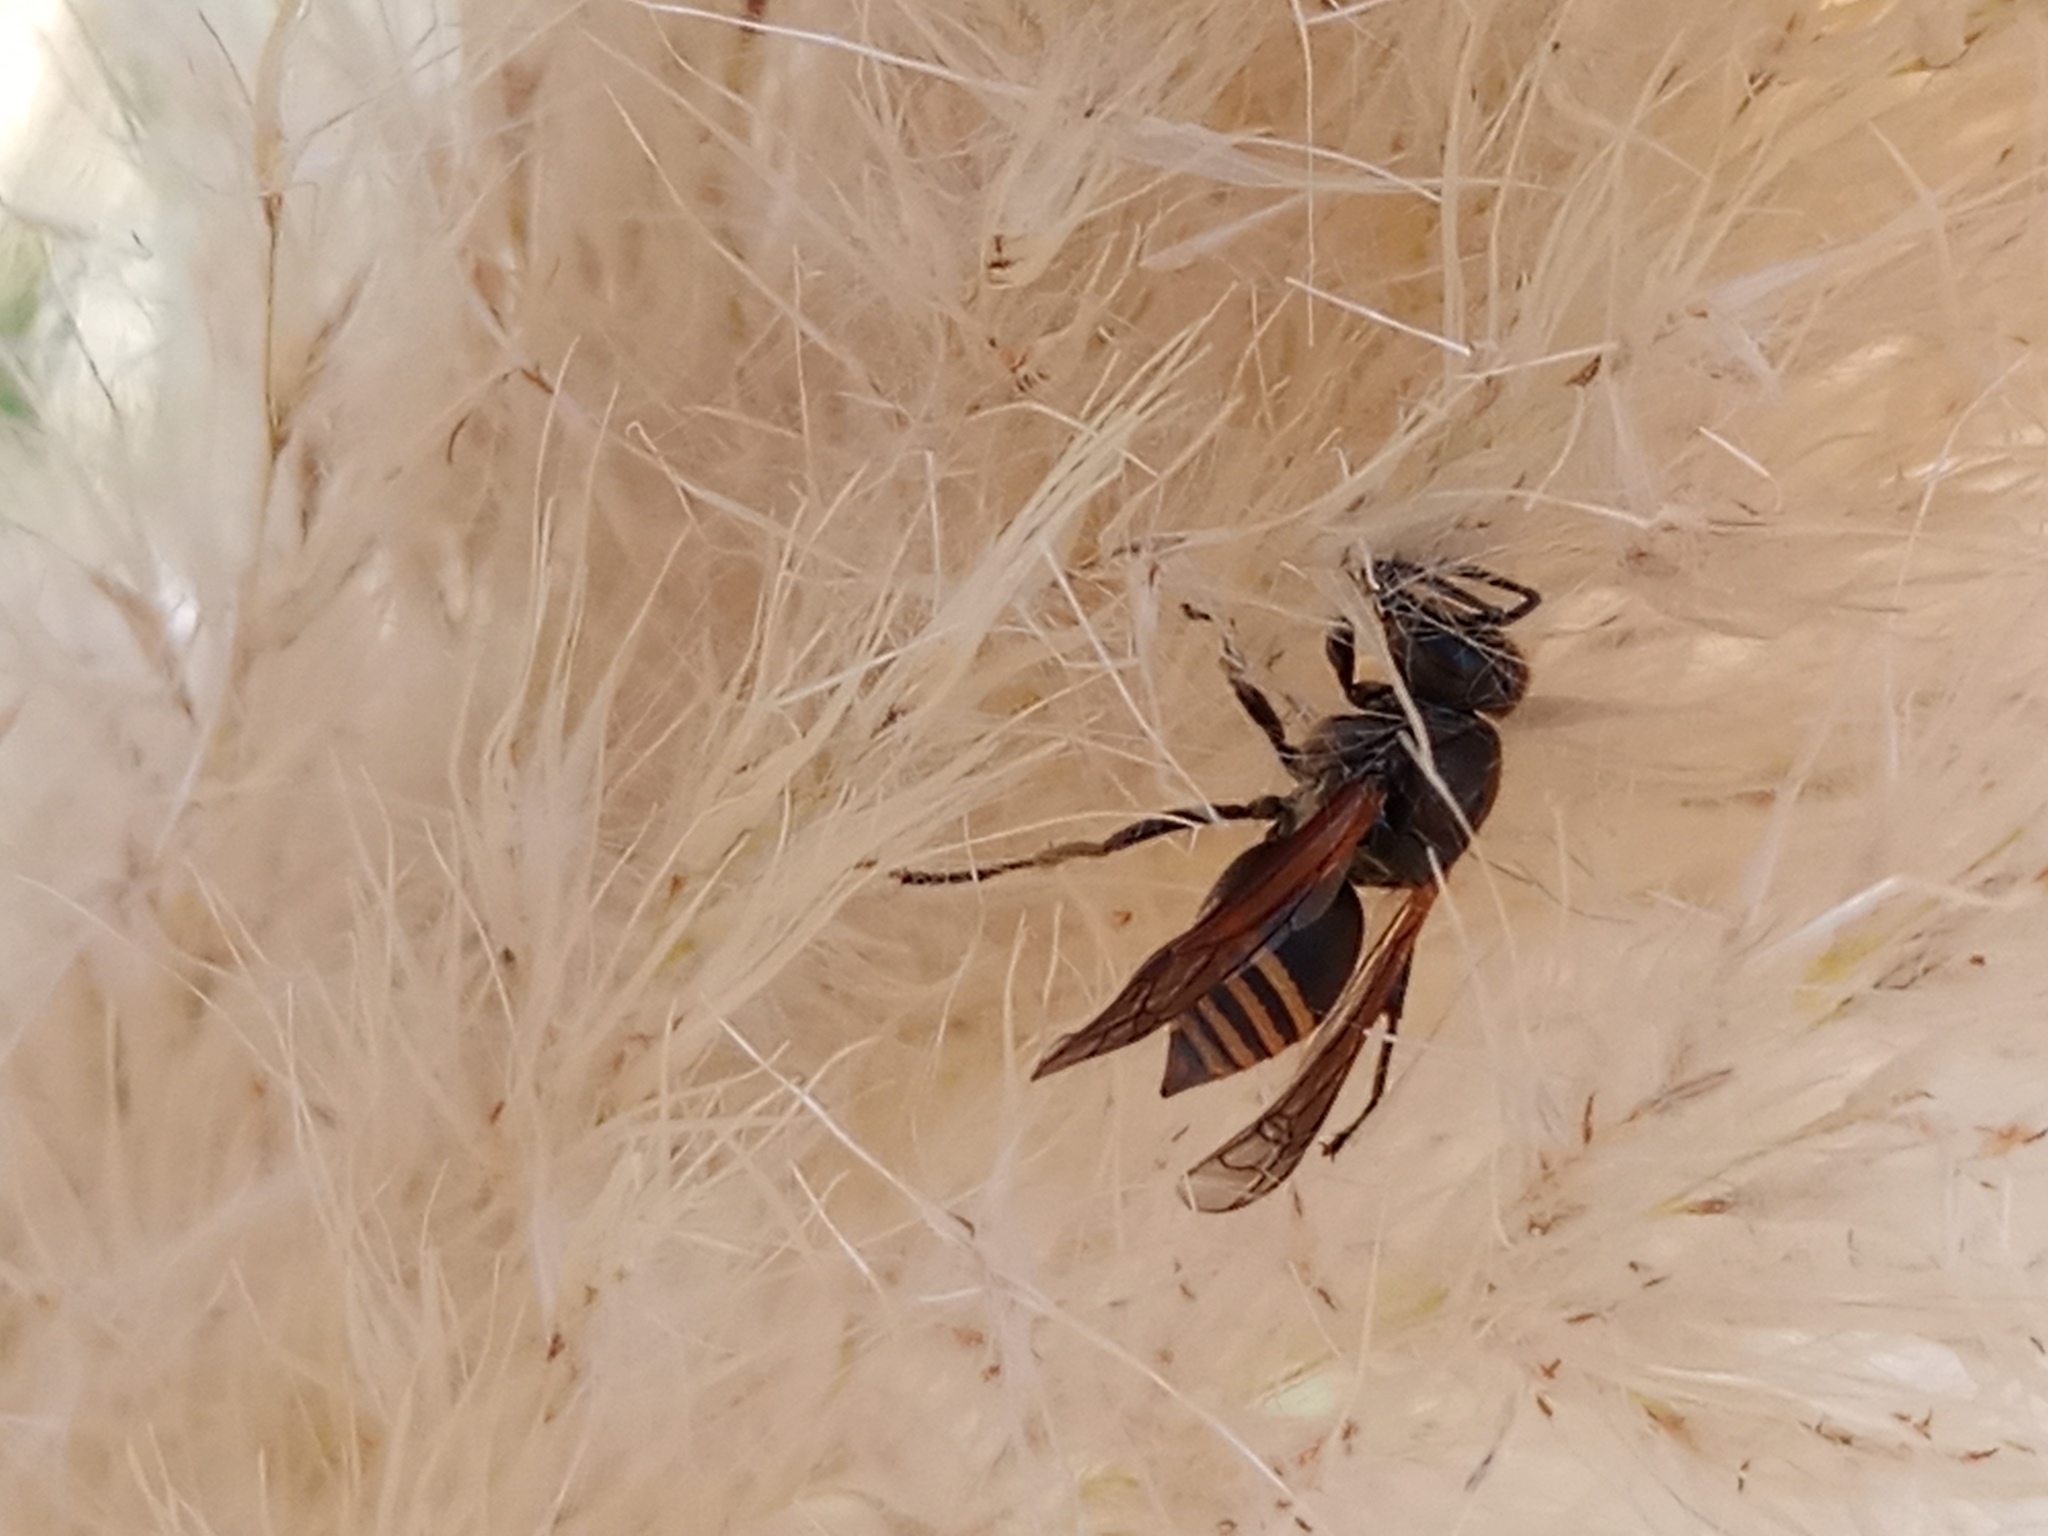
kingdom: Animalia
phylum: Arthropoda
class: Insecta
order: Hymenoptera
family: Vespidae
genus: Brachygastra
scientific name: Brachygastra lecheguana
